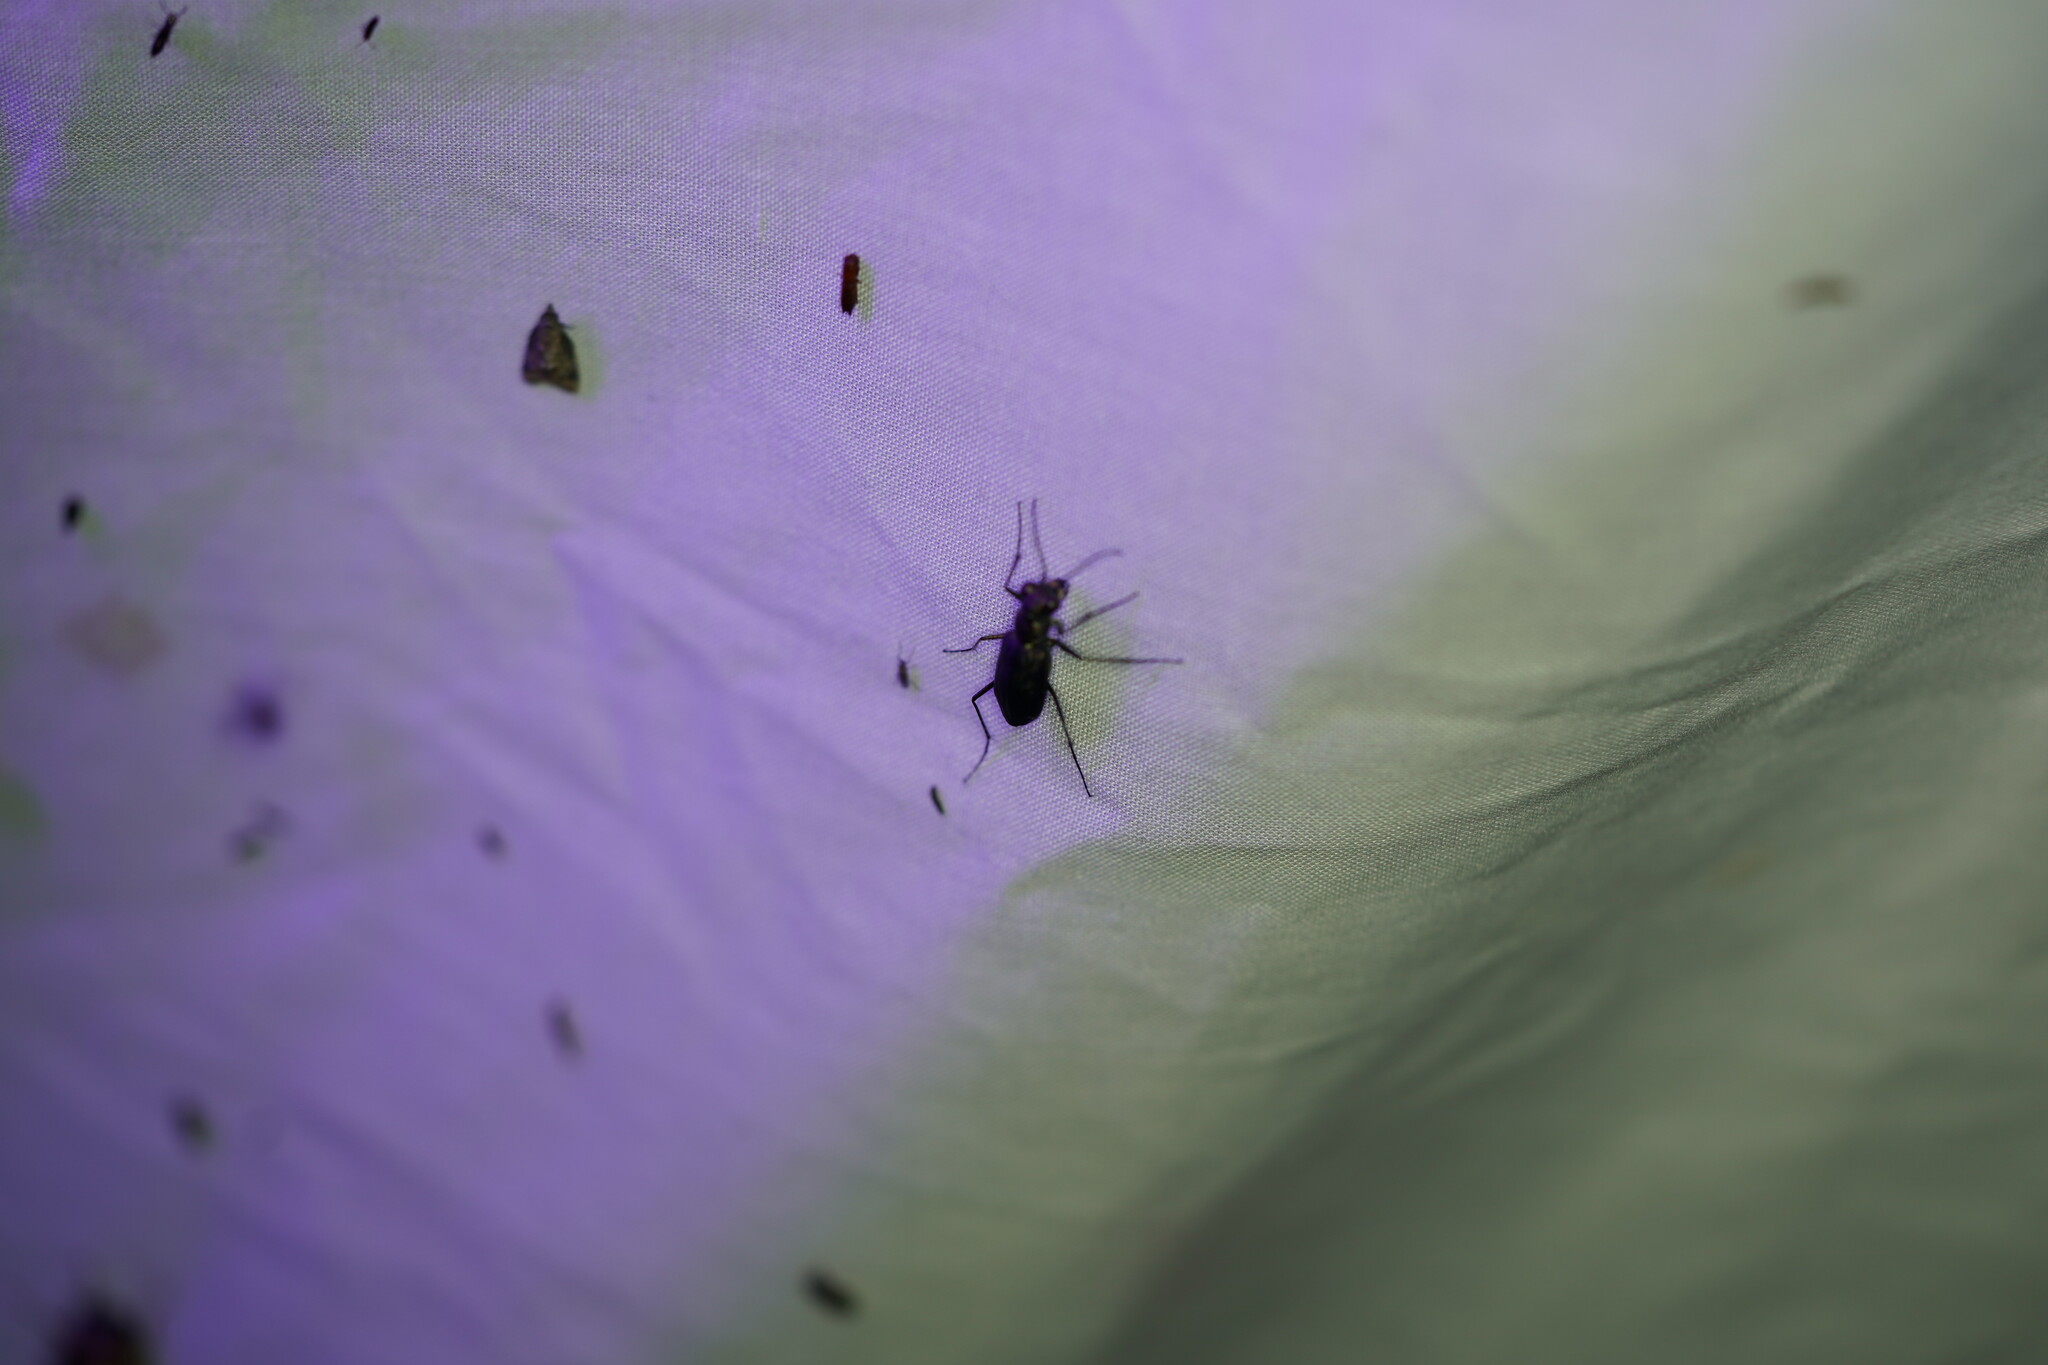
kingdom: Animalia
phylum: Arthropoda
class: Insecta
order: Coleoptera
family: Carabidae
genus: Cicindela
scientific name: Cicindela punctulata
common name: Punctured tiger beetle
